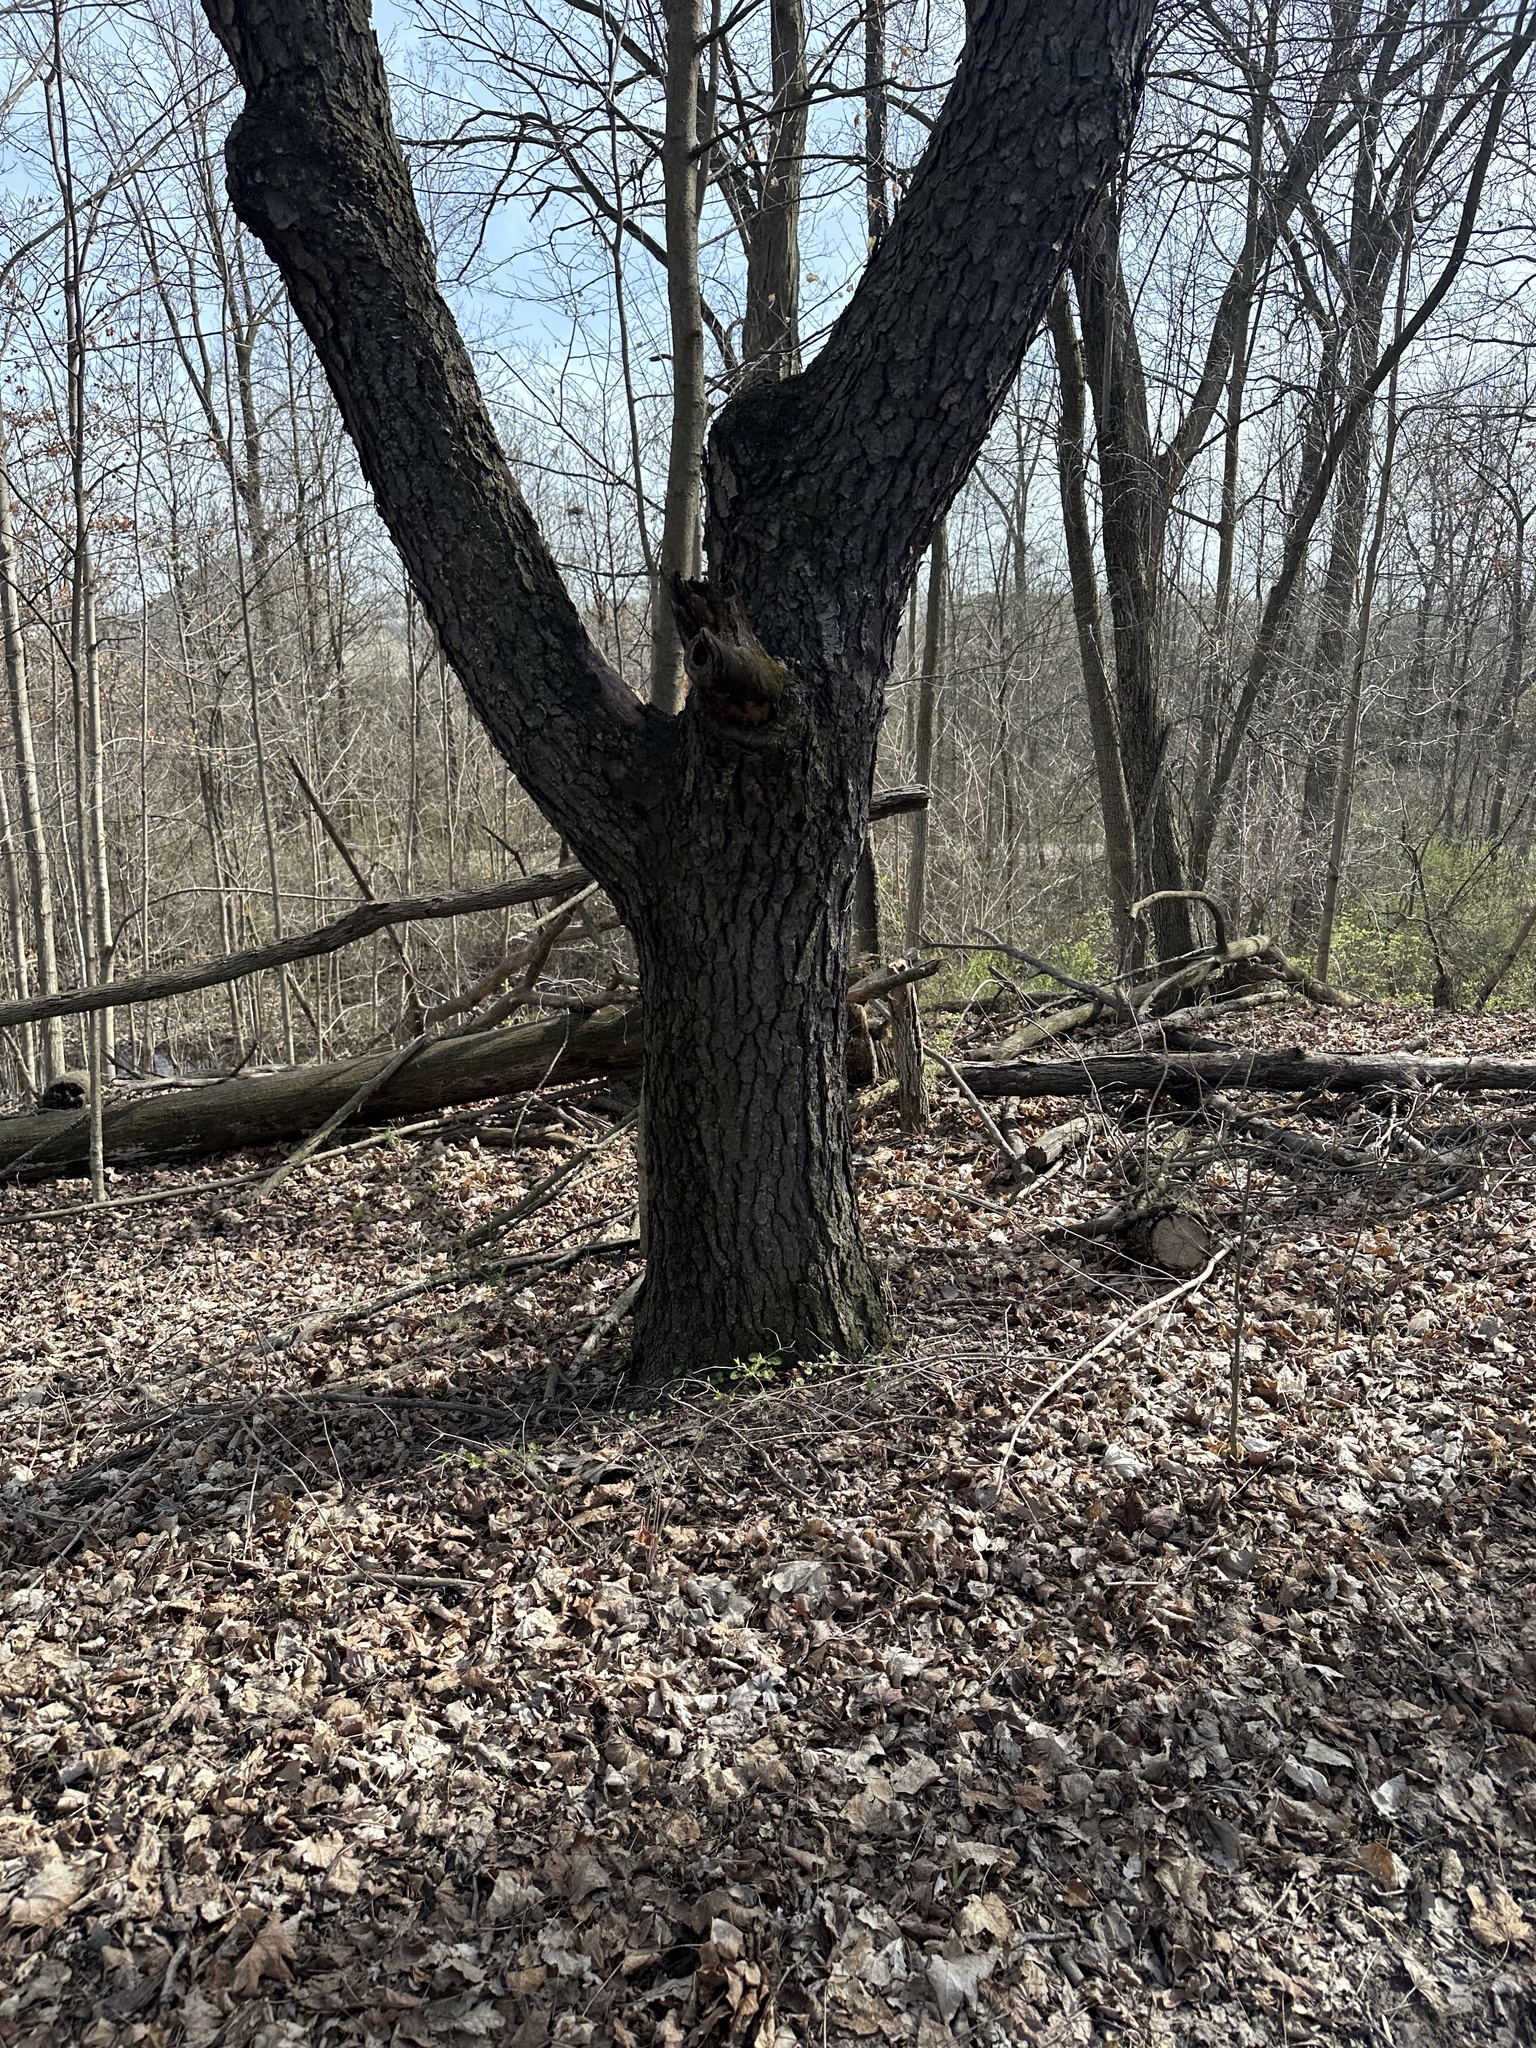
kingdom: Plantae
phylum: Tracheophyta
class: Magnoliopsida
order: Rosales
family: Rosaceae
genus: Prunus
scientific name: Prunus serotina
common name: Black cherry
